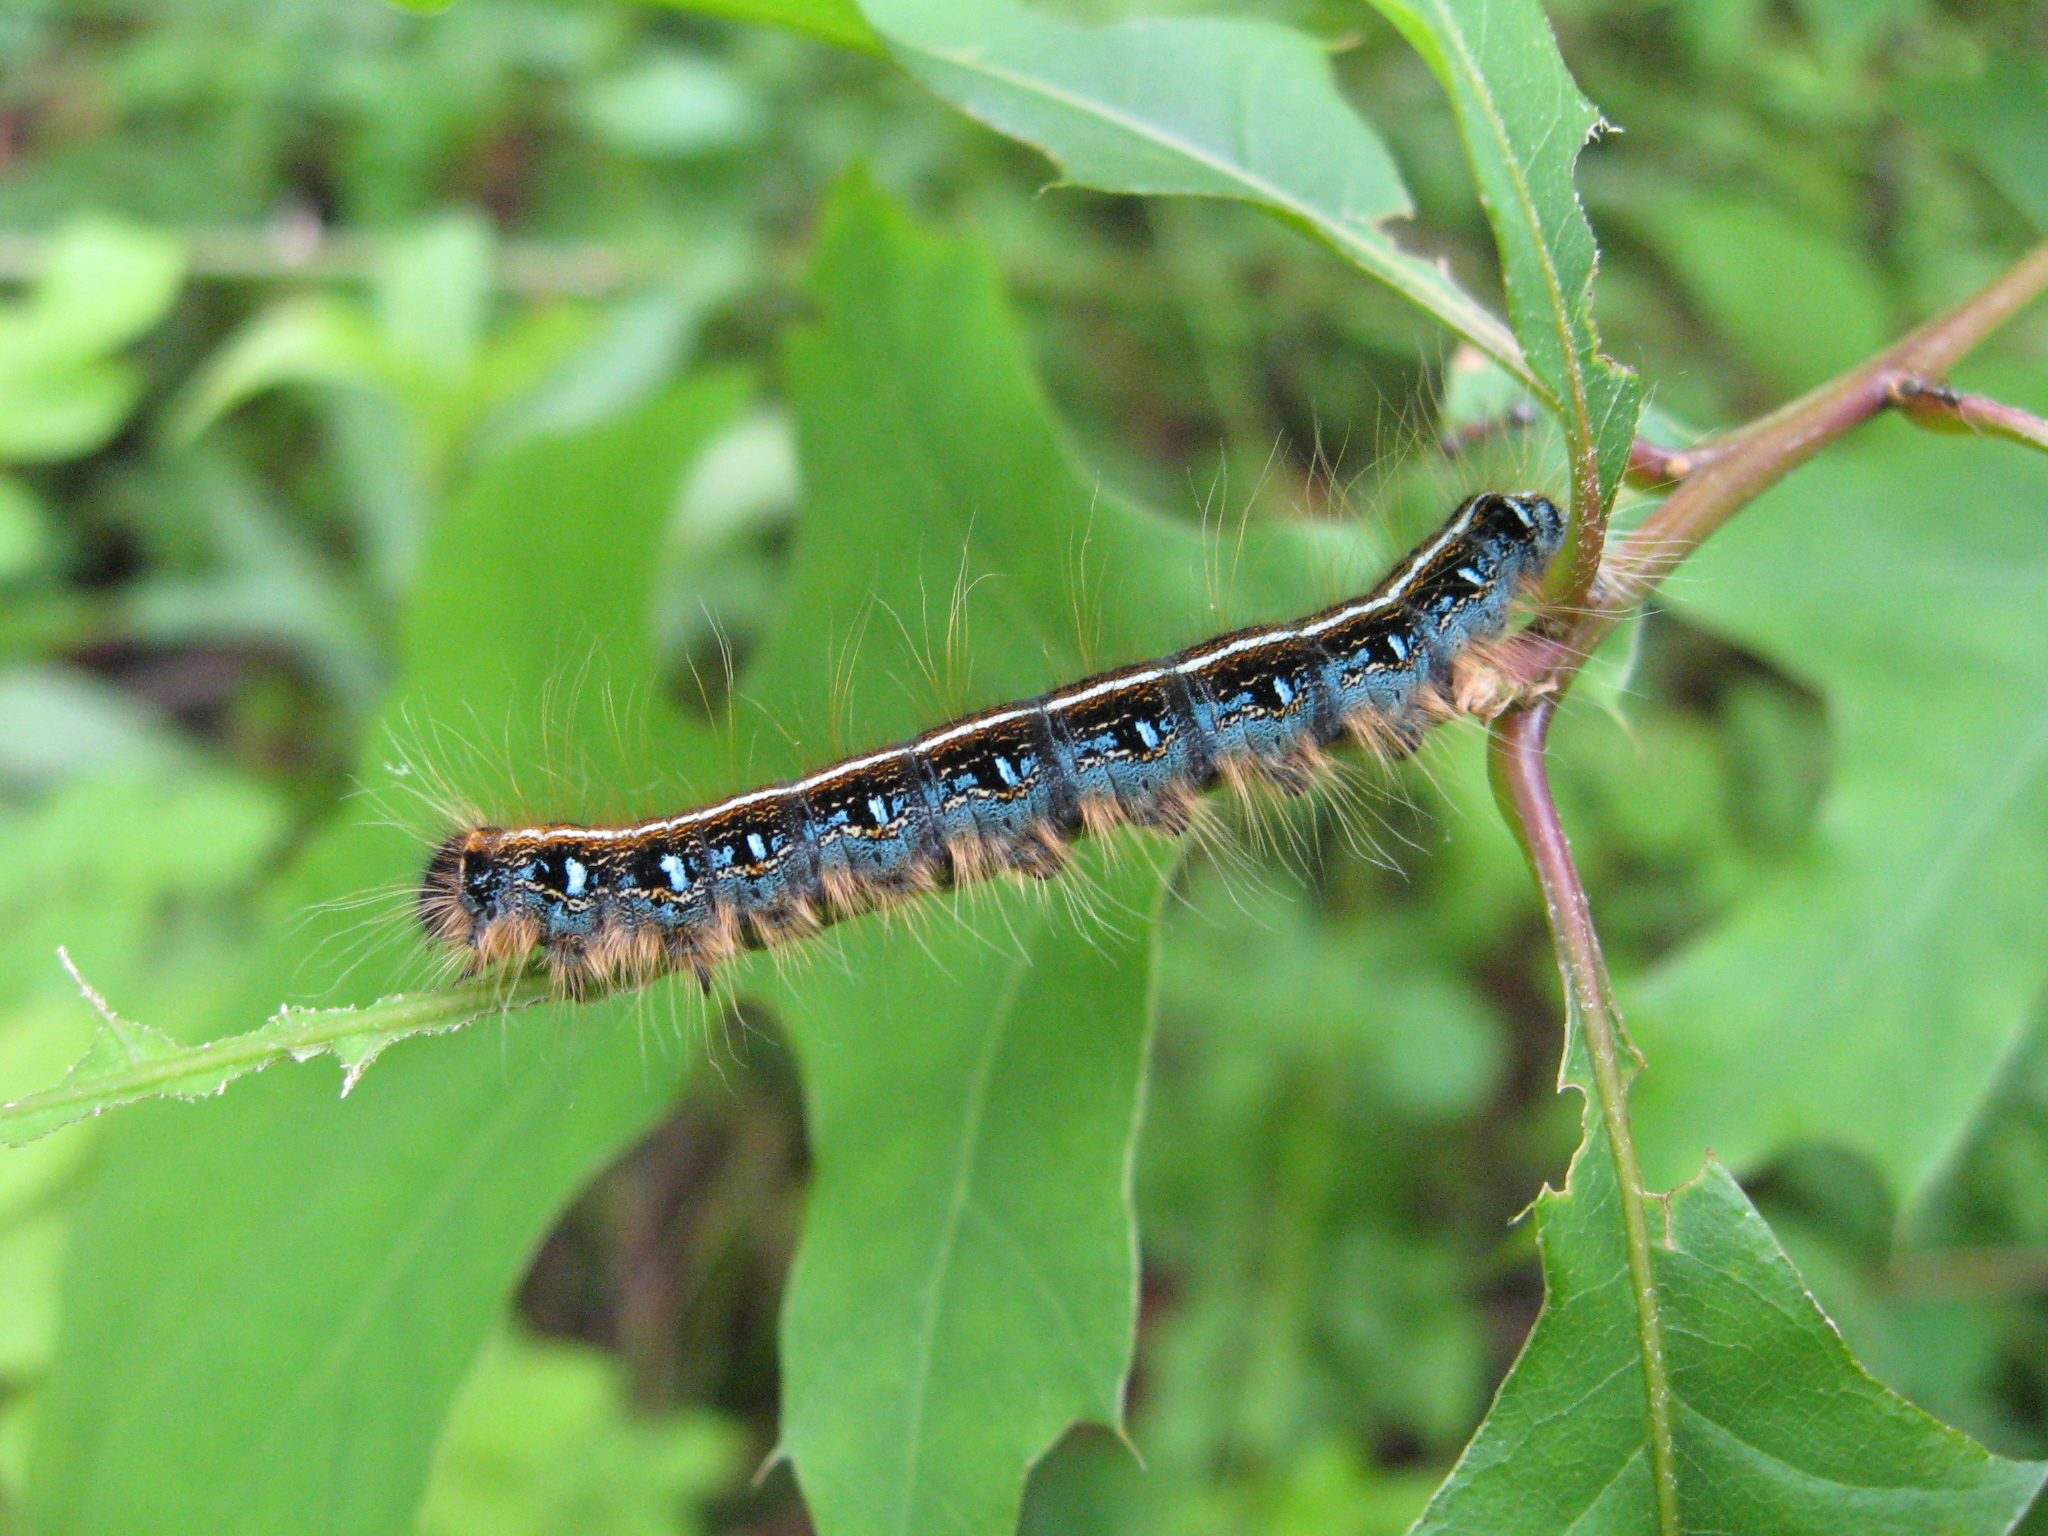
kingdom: Animalia
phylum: Arthropoda
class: Insecta
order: Lepidoptera
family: Lasiocampidae
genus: Malacosoma
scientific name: Malacosoma americana
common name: Eastern tent caterpillar moth
